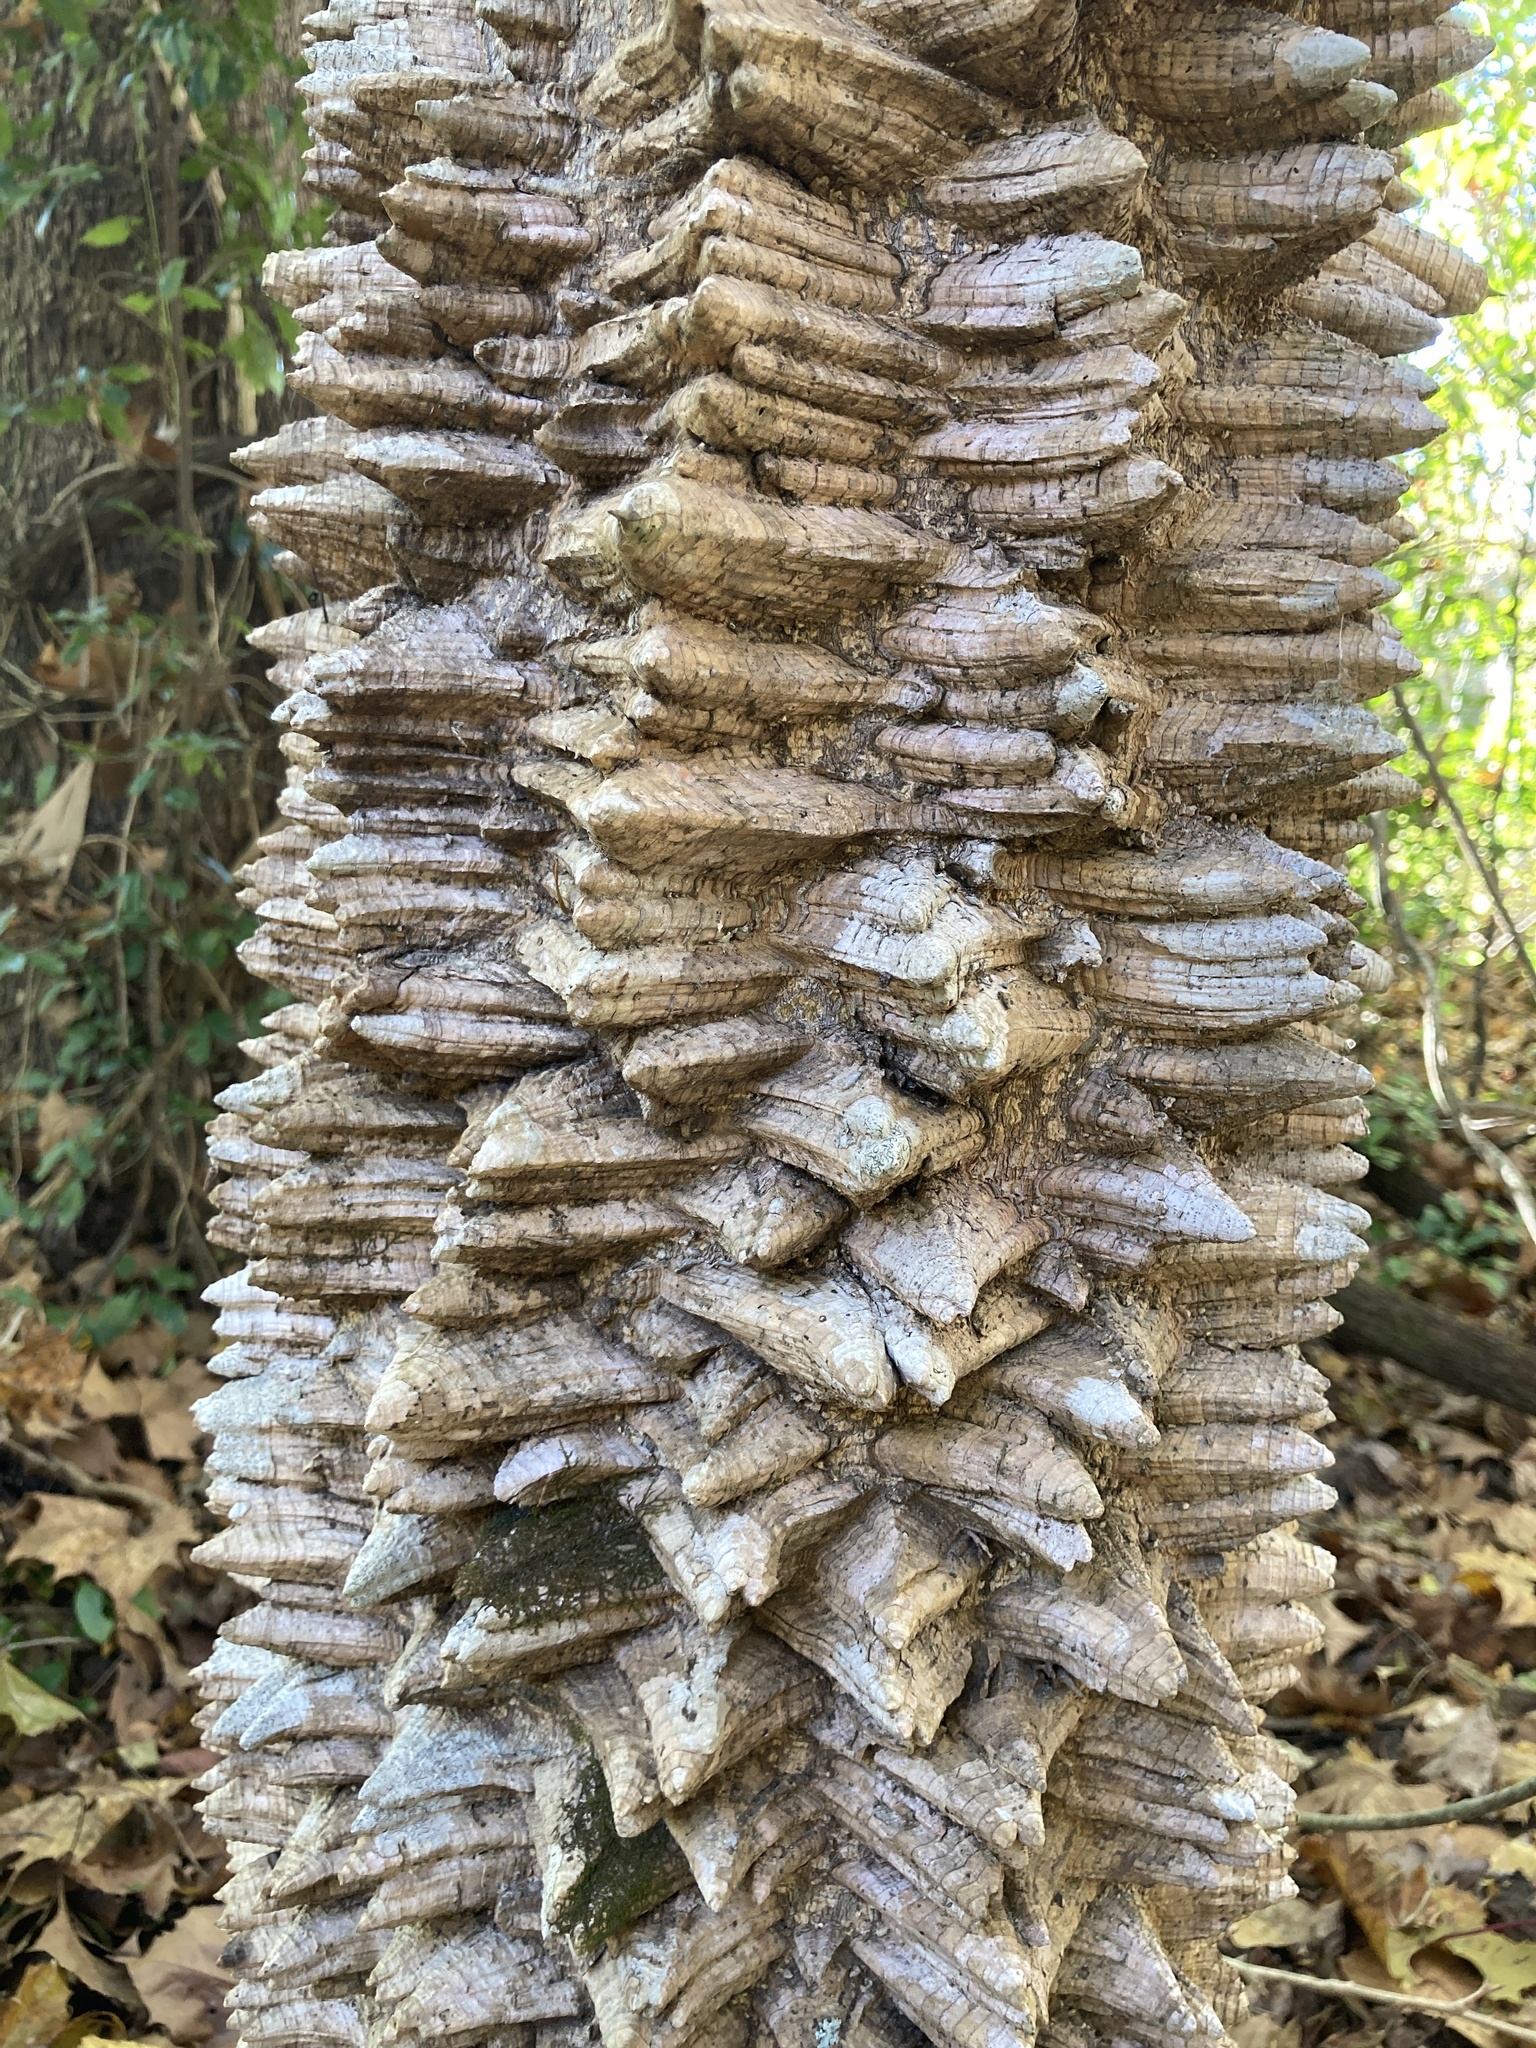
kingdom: Plantae
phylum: Tracheophyta
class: Magnoliopsida
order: Sapindales
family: Rutaceae
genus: Zanthoxylum
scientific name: Zanthoxylum clava-herculis
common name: Hercules'-club
